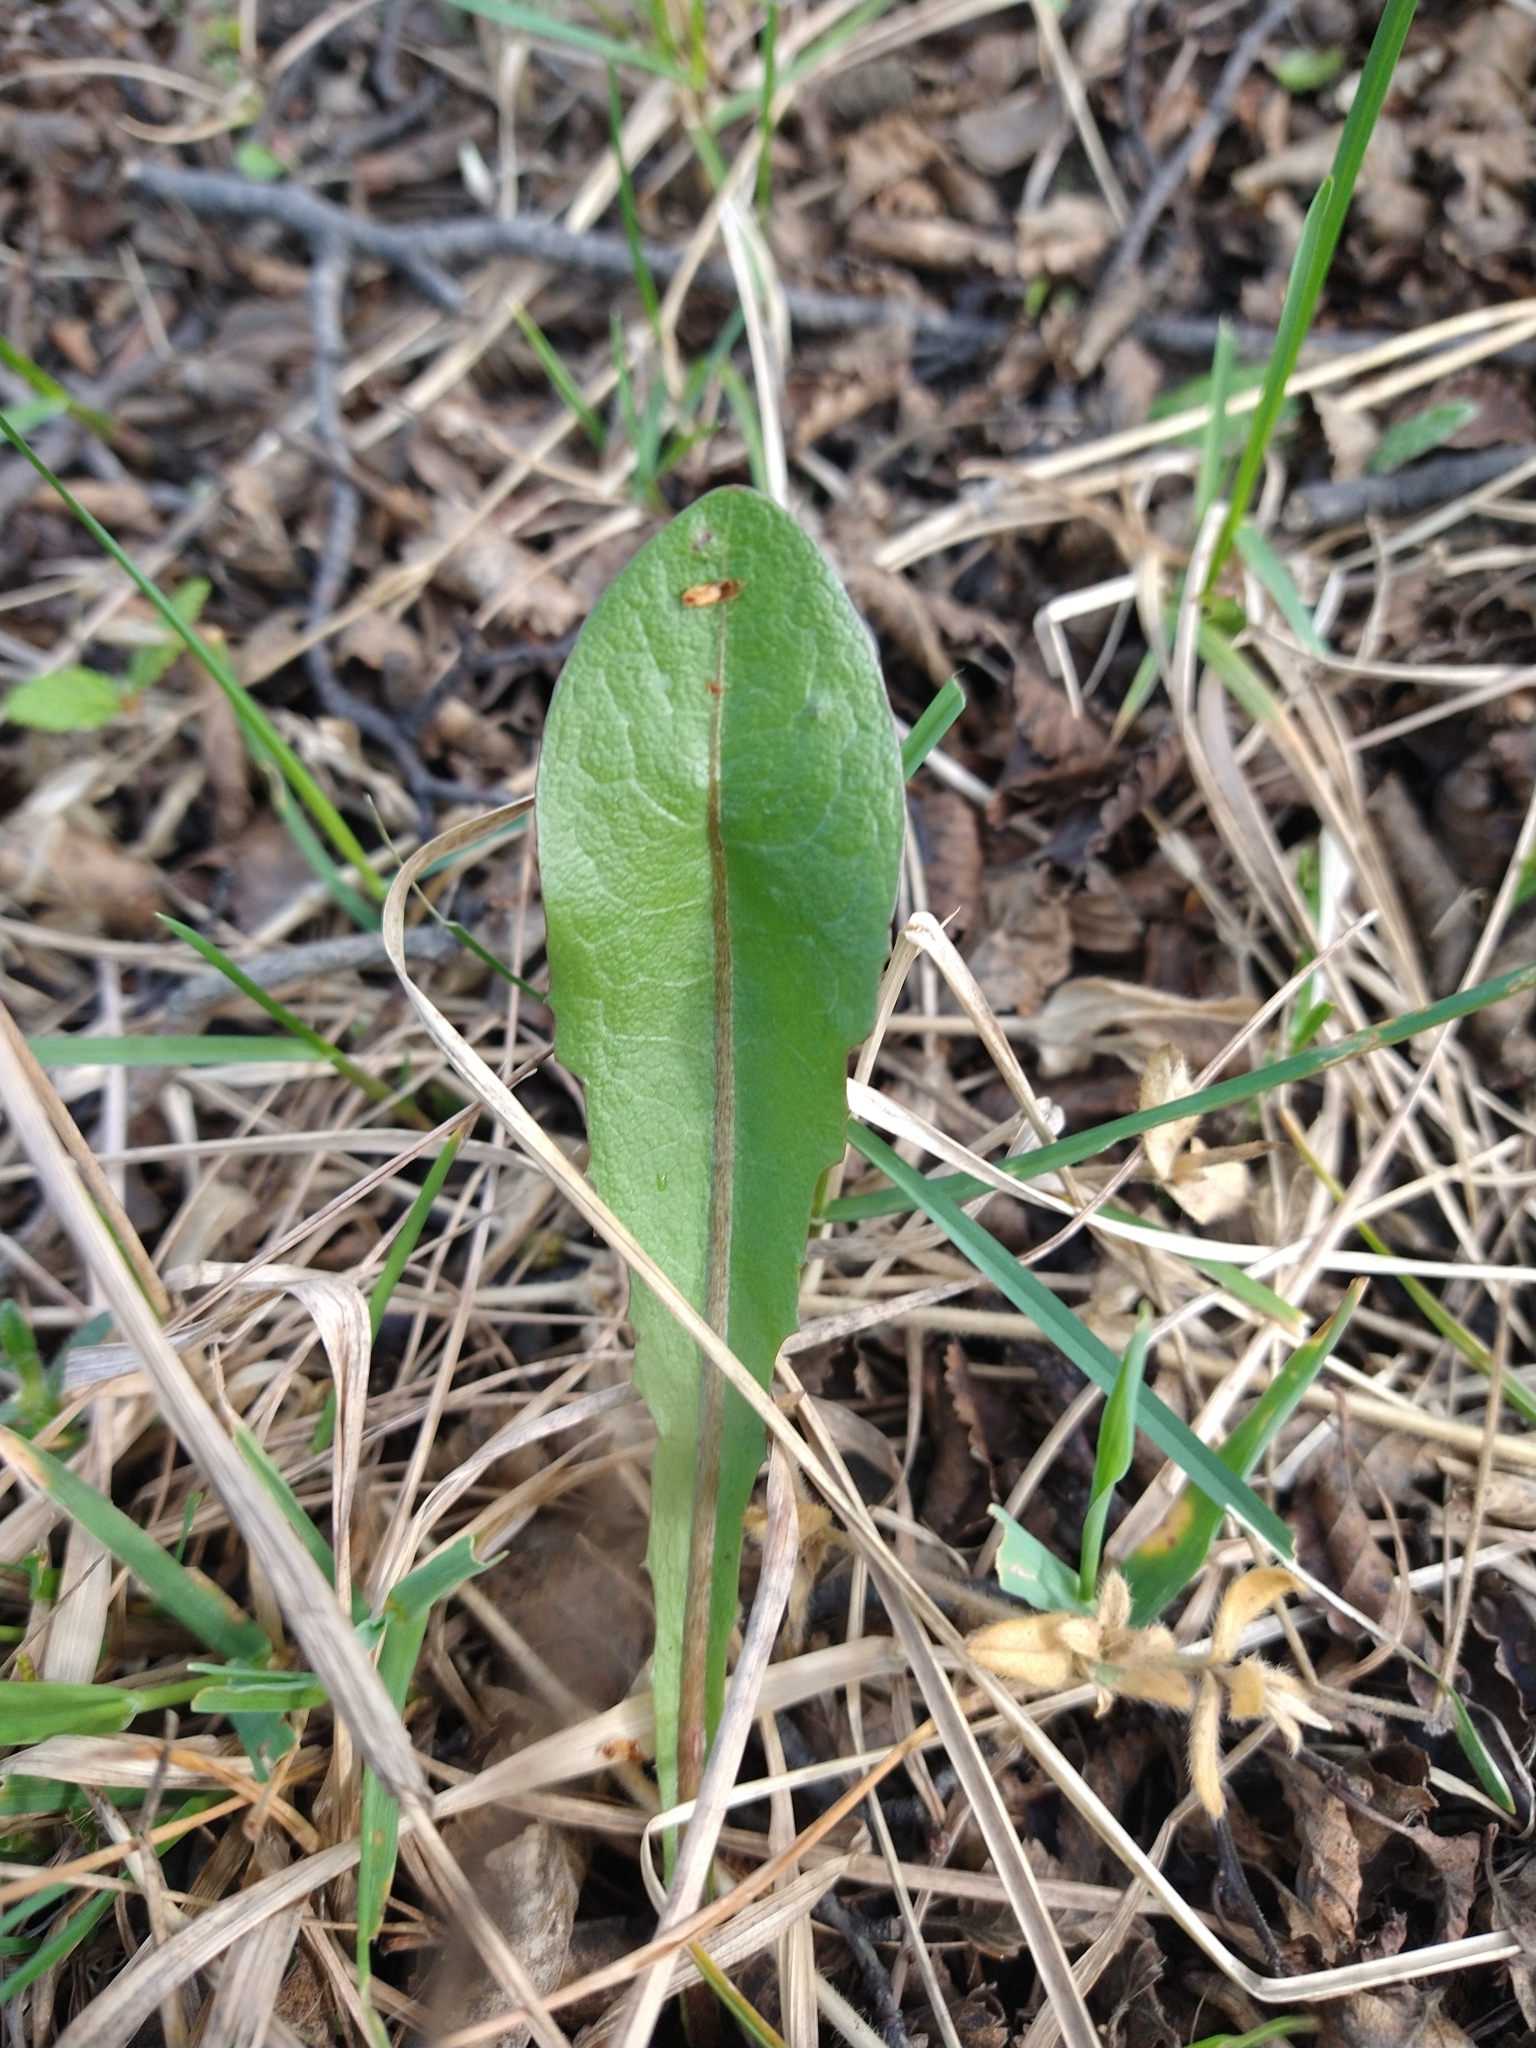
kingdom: Plantae
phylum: Tracheophyta
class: Magnoliopsida
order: Asterales
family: Asteraceae
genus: Taraxacum
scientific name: Taraxacum officinale
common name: Common dandelion
